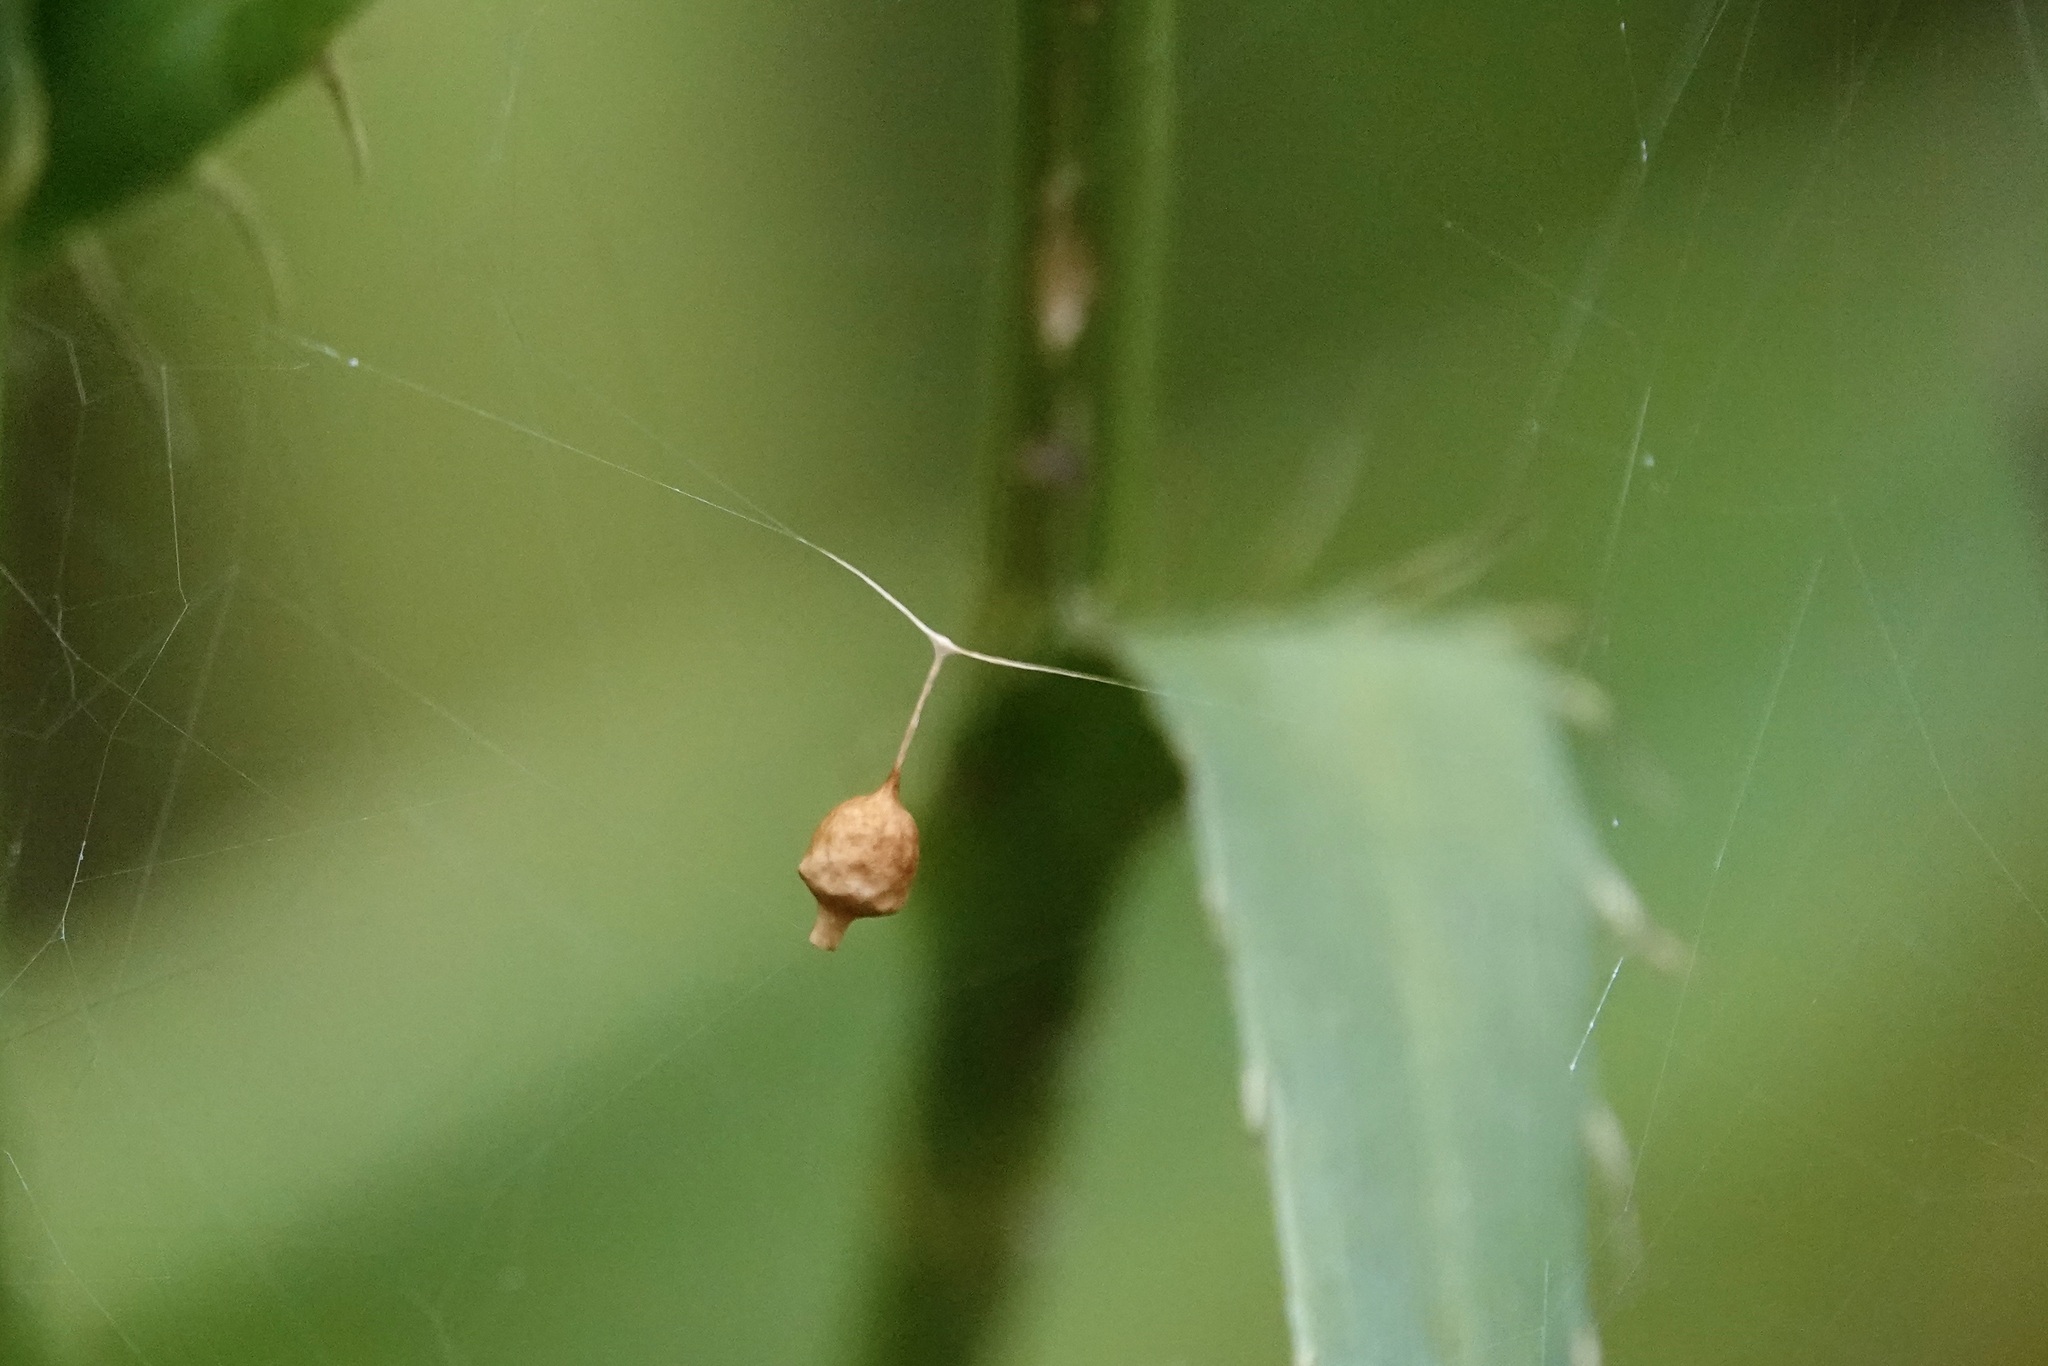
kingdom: Animalia
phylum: Arthropoda
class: Arachnida
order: Araneae
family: Theridiidae
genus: Neospintharus
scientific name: Neospintharus trigonum
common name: Horned parasitic cobweaver
